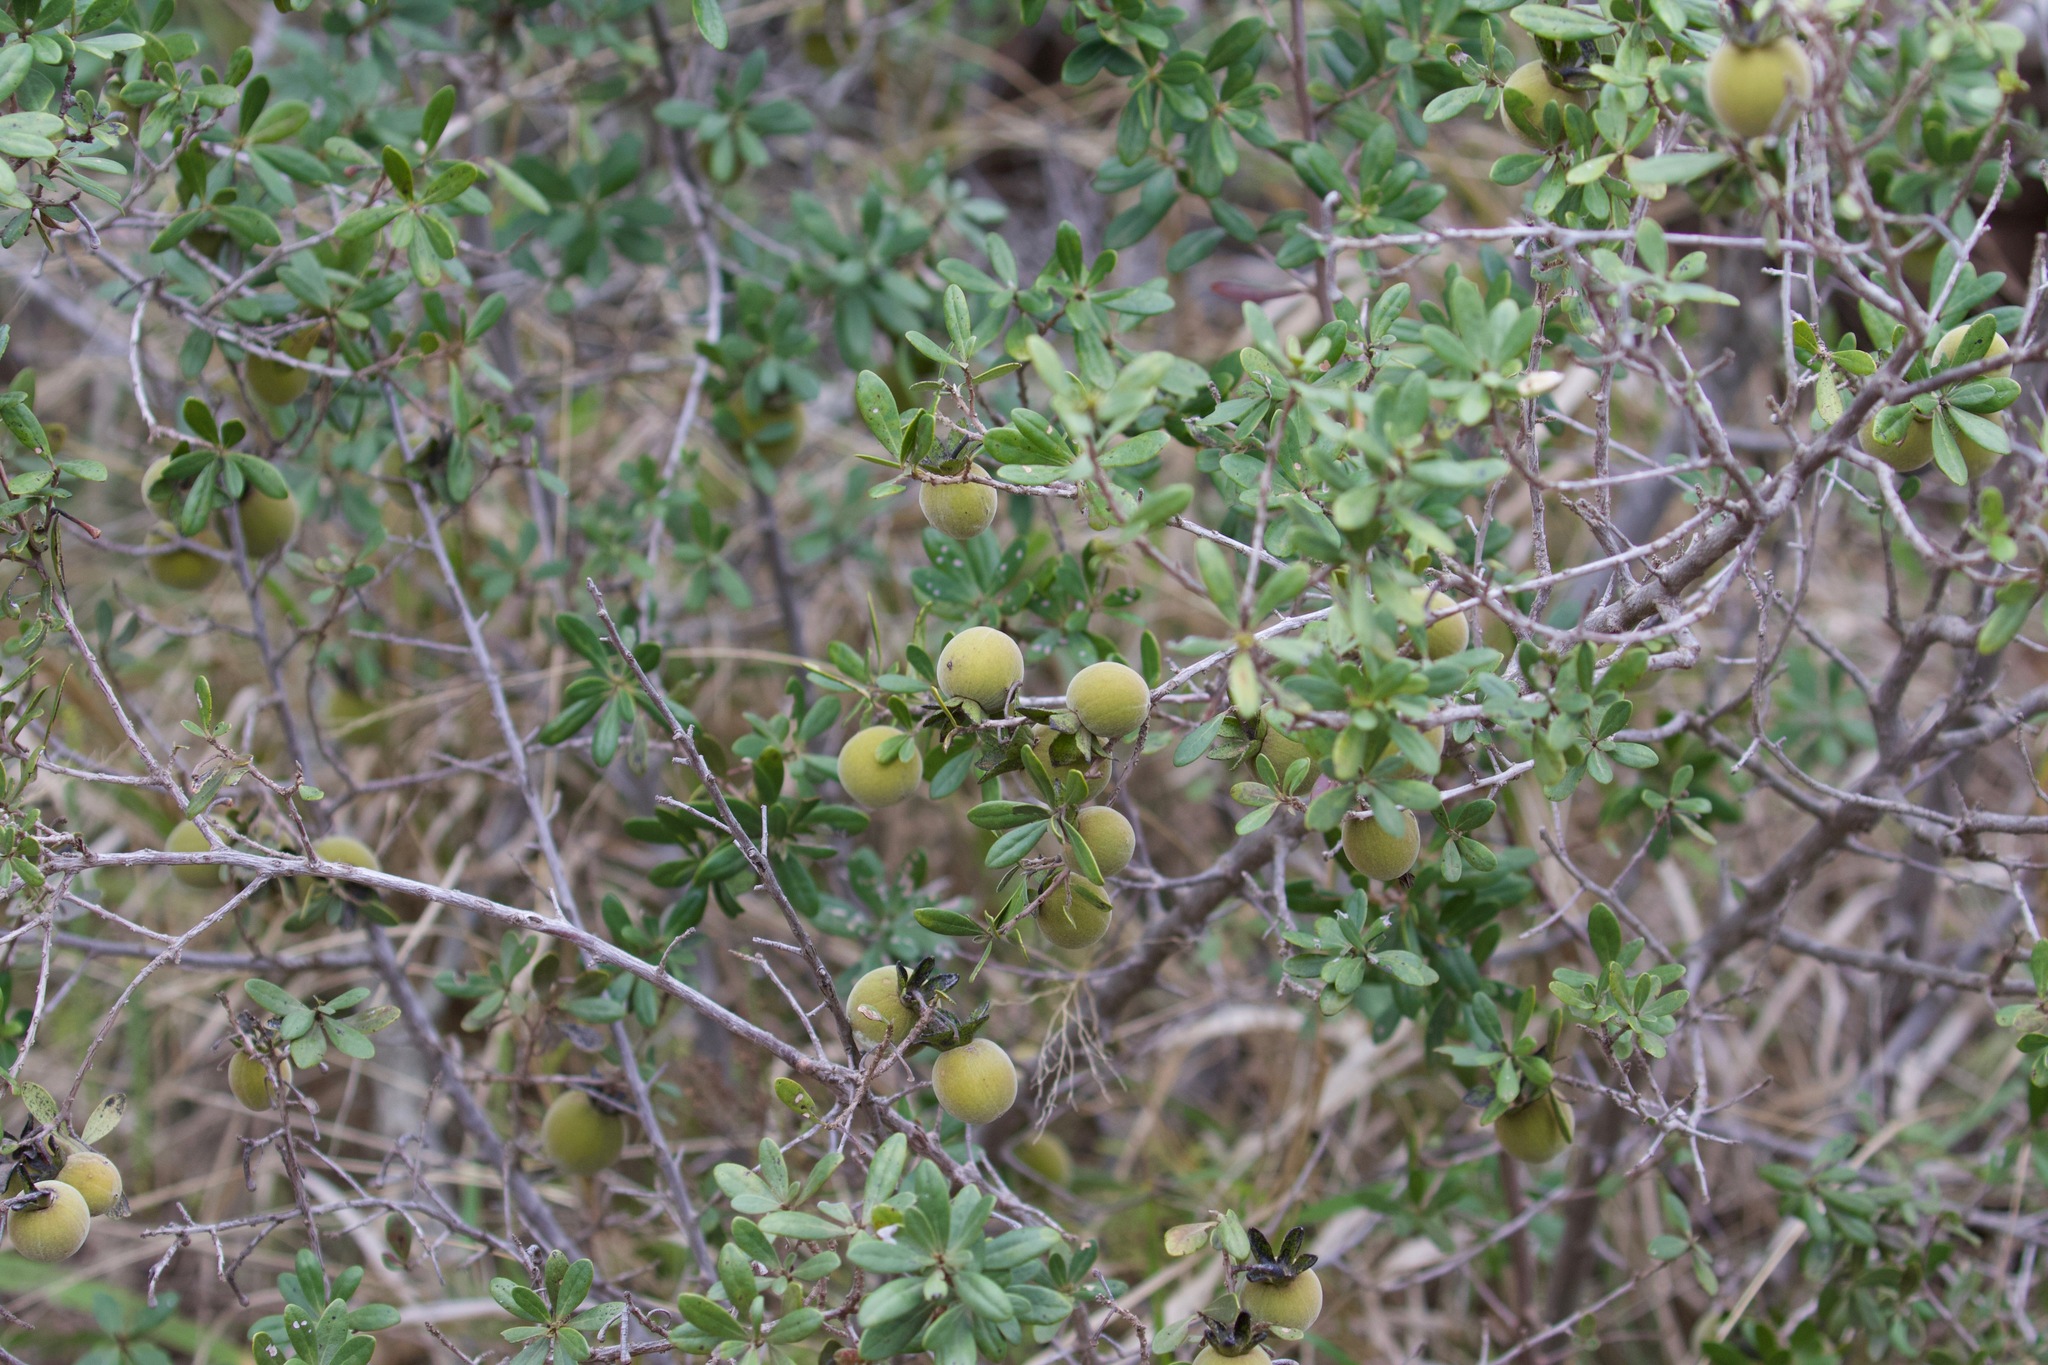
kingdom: Plantae
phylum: Tracheophyta
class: Magnoliopsida
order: Ericales
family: Ebenaceae
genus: Diospyros
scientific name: Diospyros dichrophylla
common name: Common star-apple
